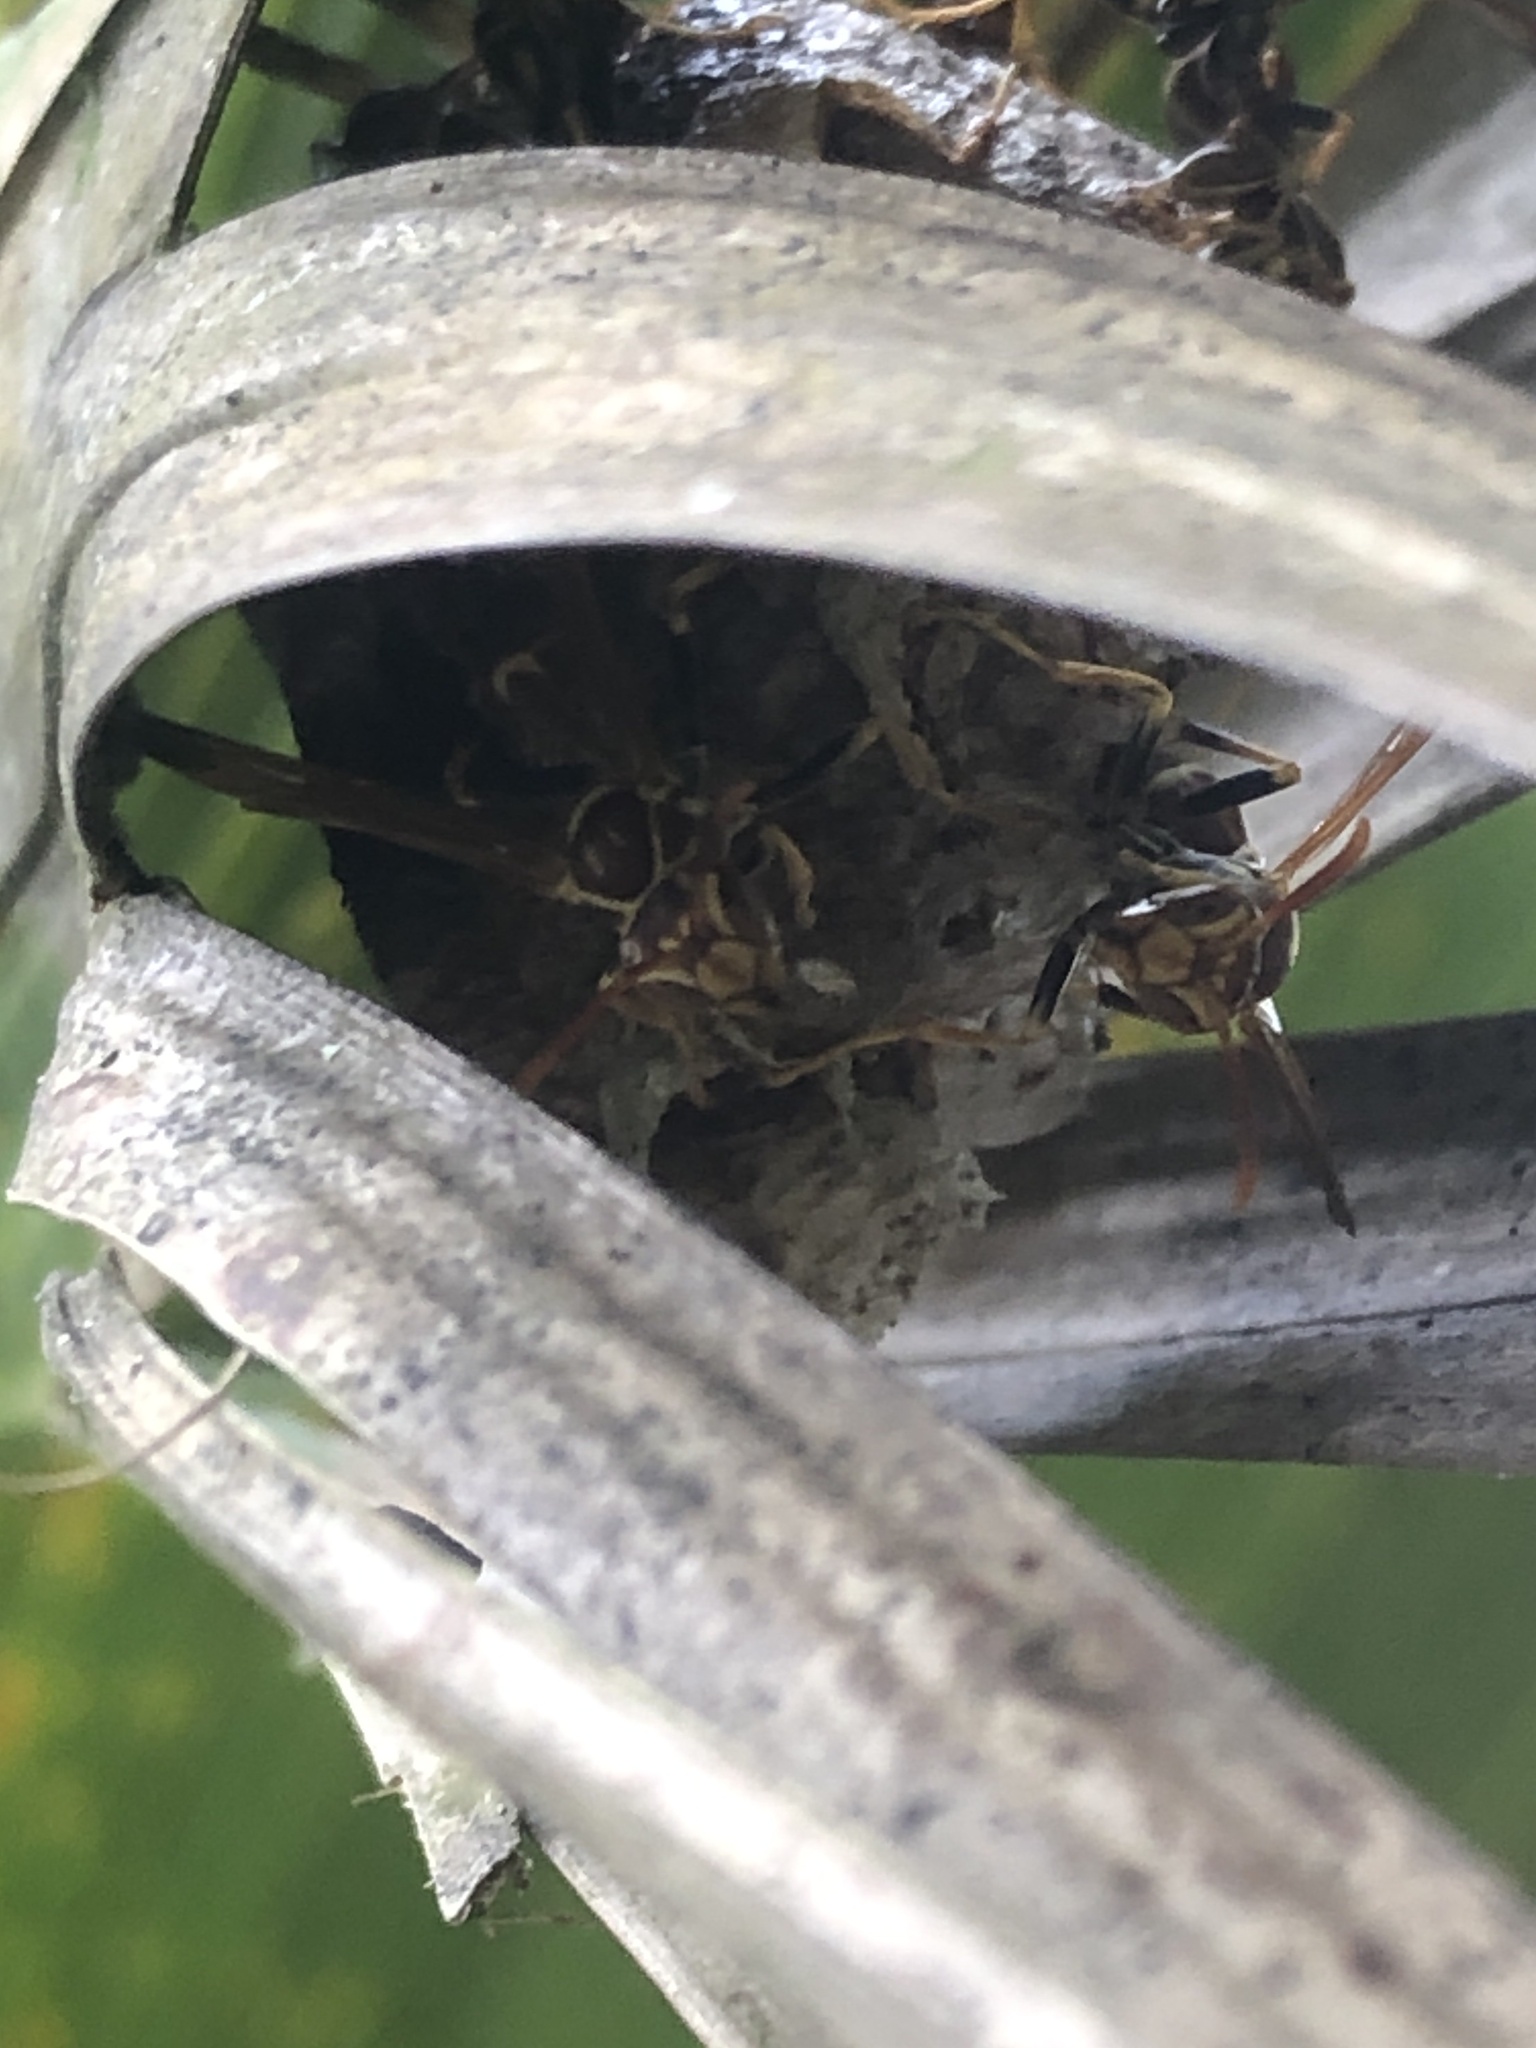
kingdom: Animalia
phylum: Arthropoda
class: Insecta
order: Hymenoptera
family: Vespidae
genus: Mischocyttarus
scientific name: Mischocyttarus mexicanus
